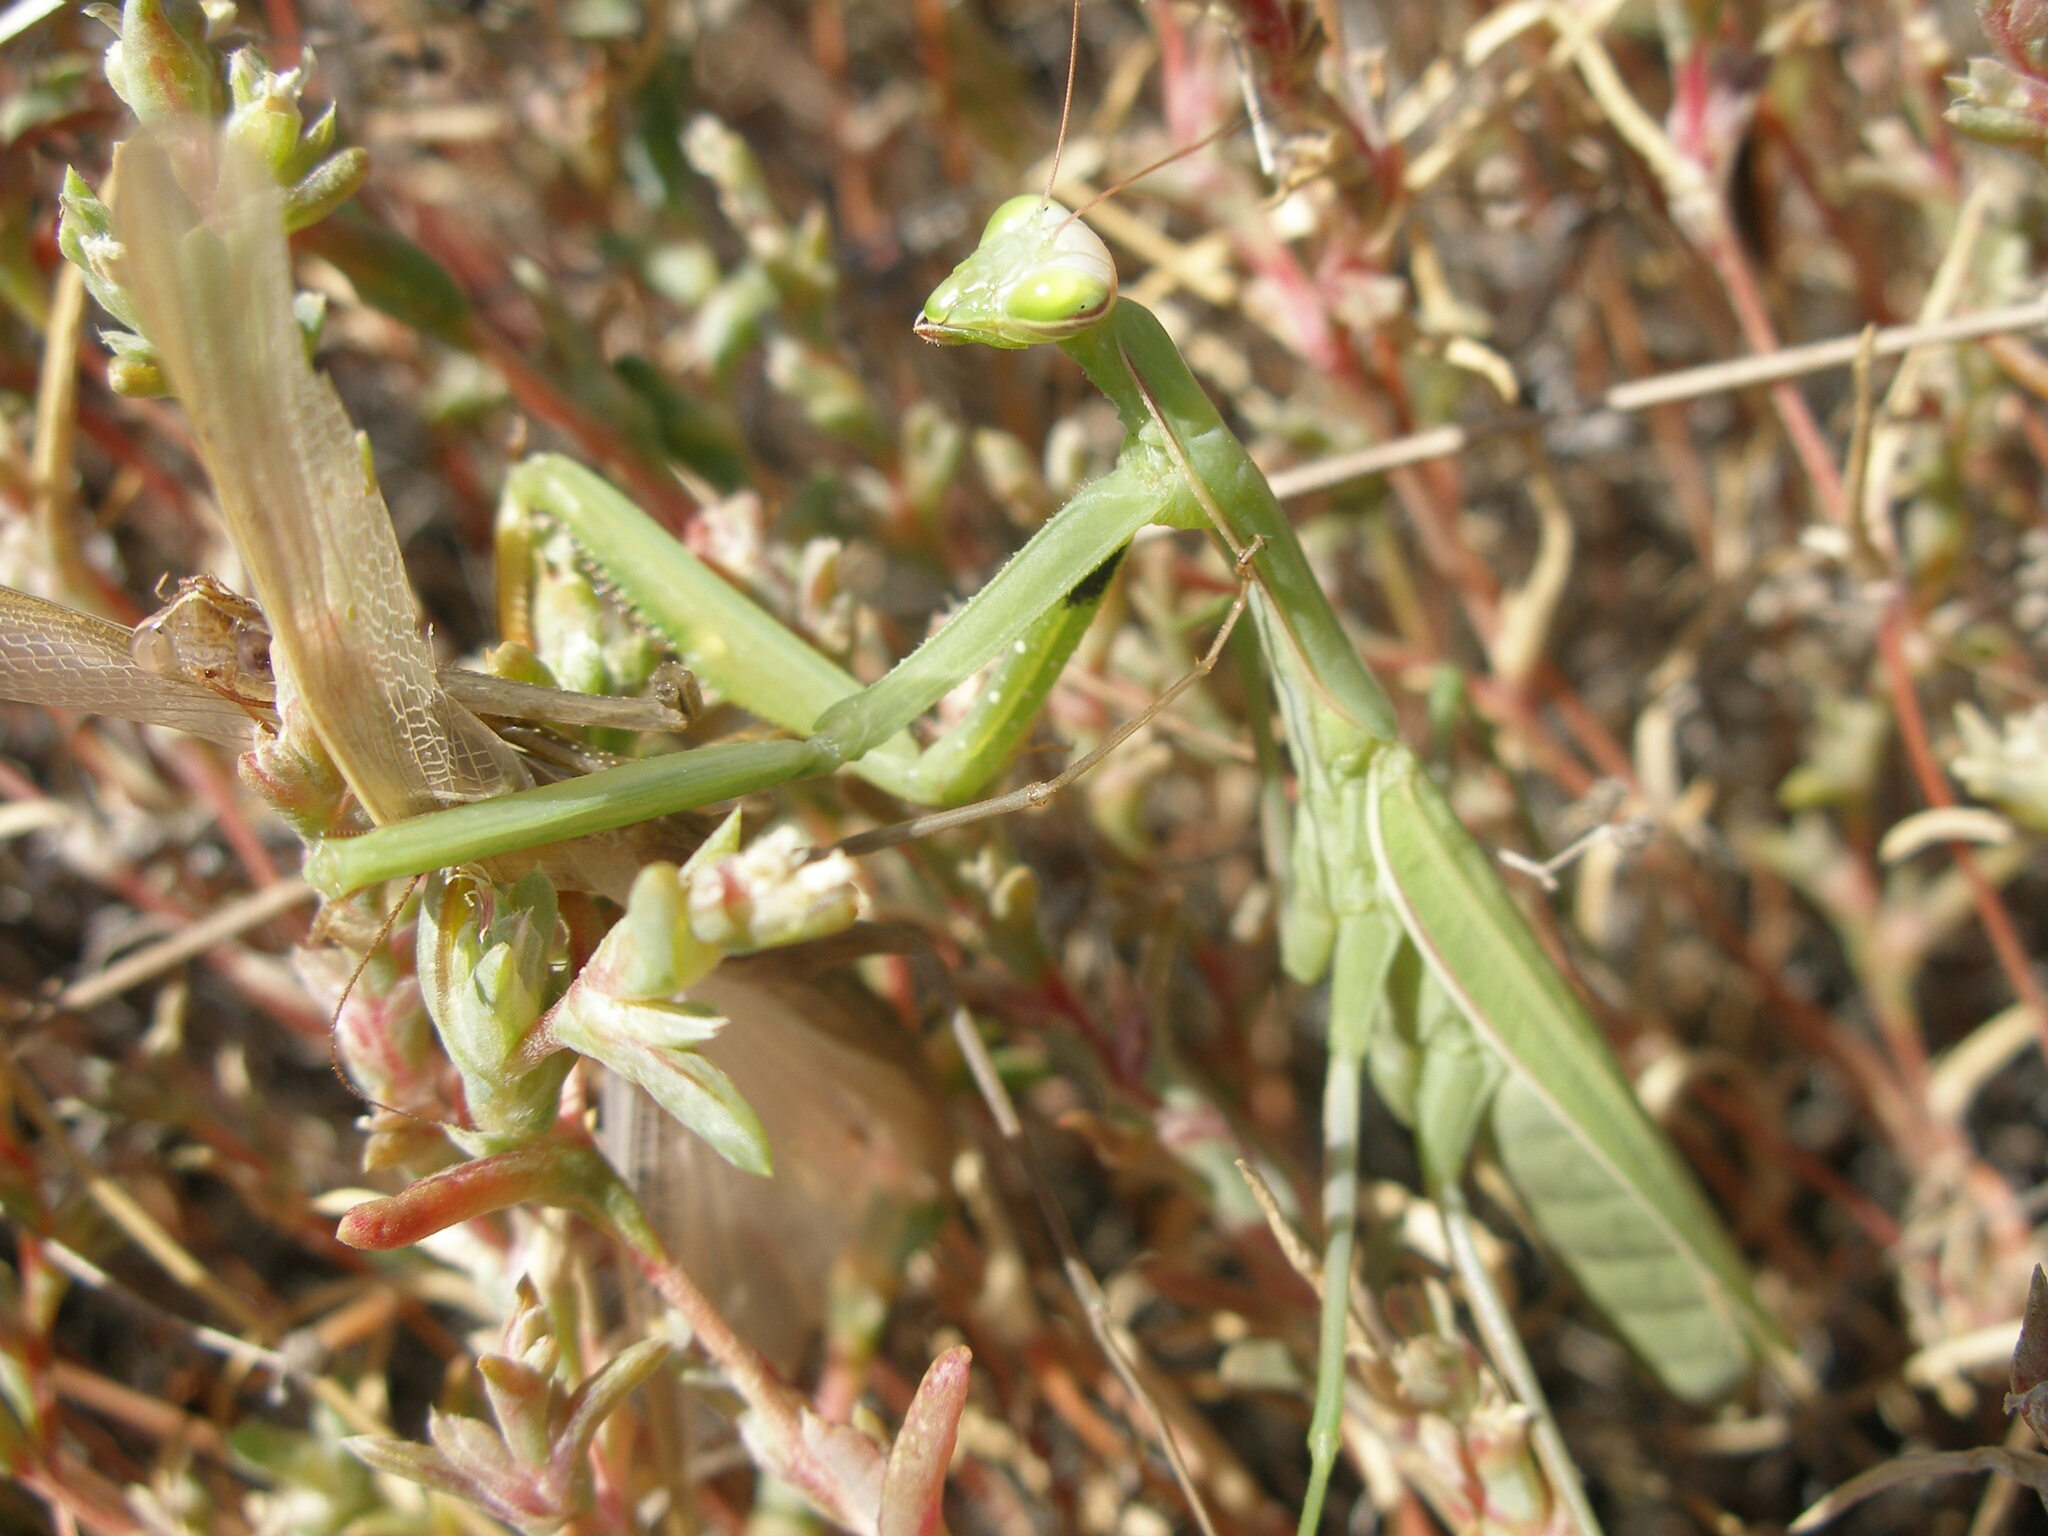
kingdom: Animalia
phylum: Arthropoda
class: Insecta
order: Mantodea
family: Mantidae
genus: Mantis
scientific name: Mantis religiosa
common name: Praying mantis
